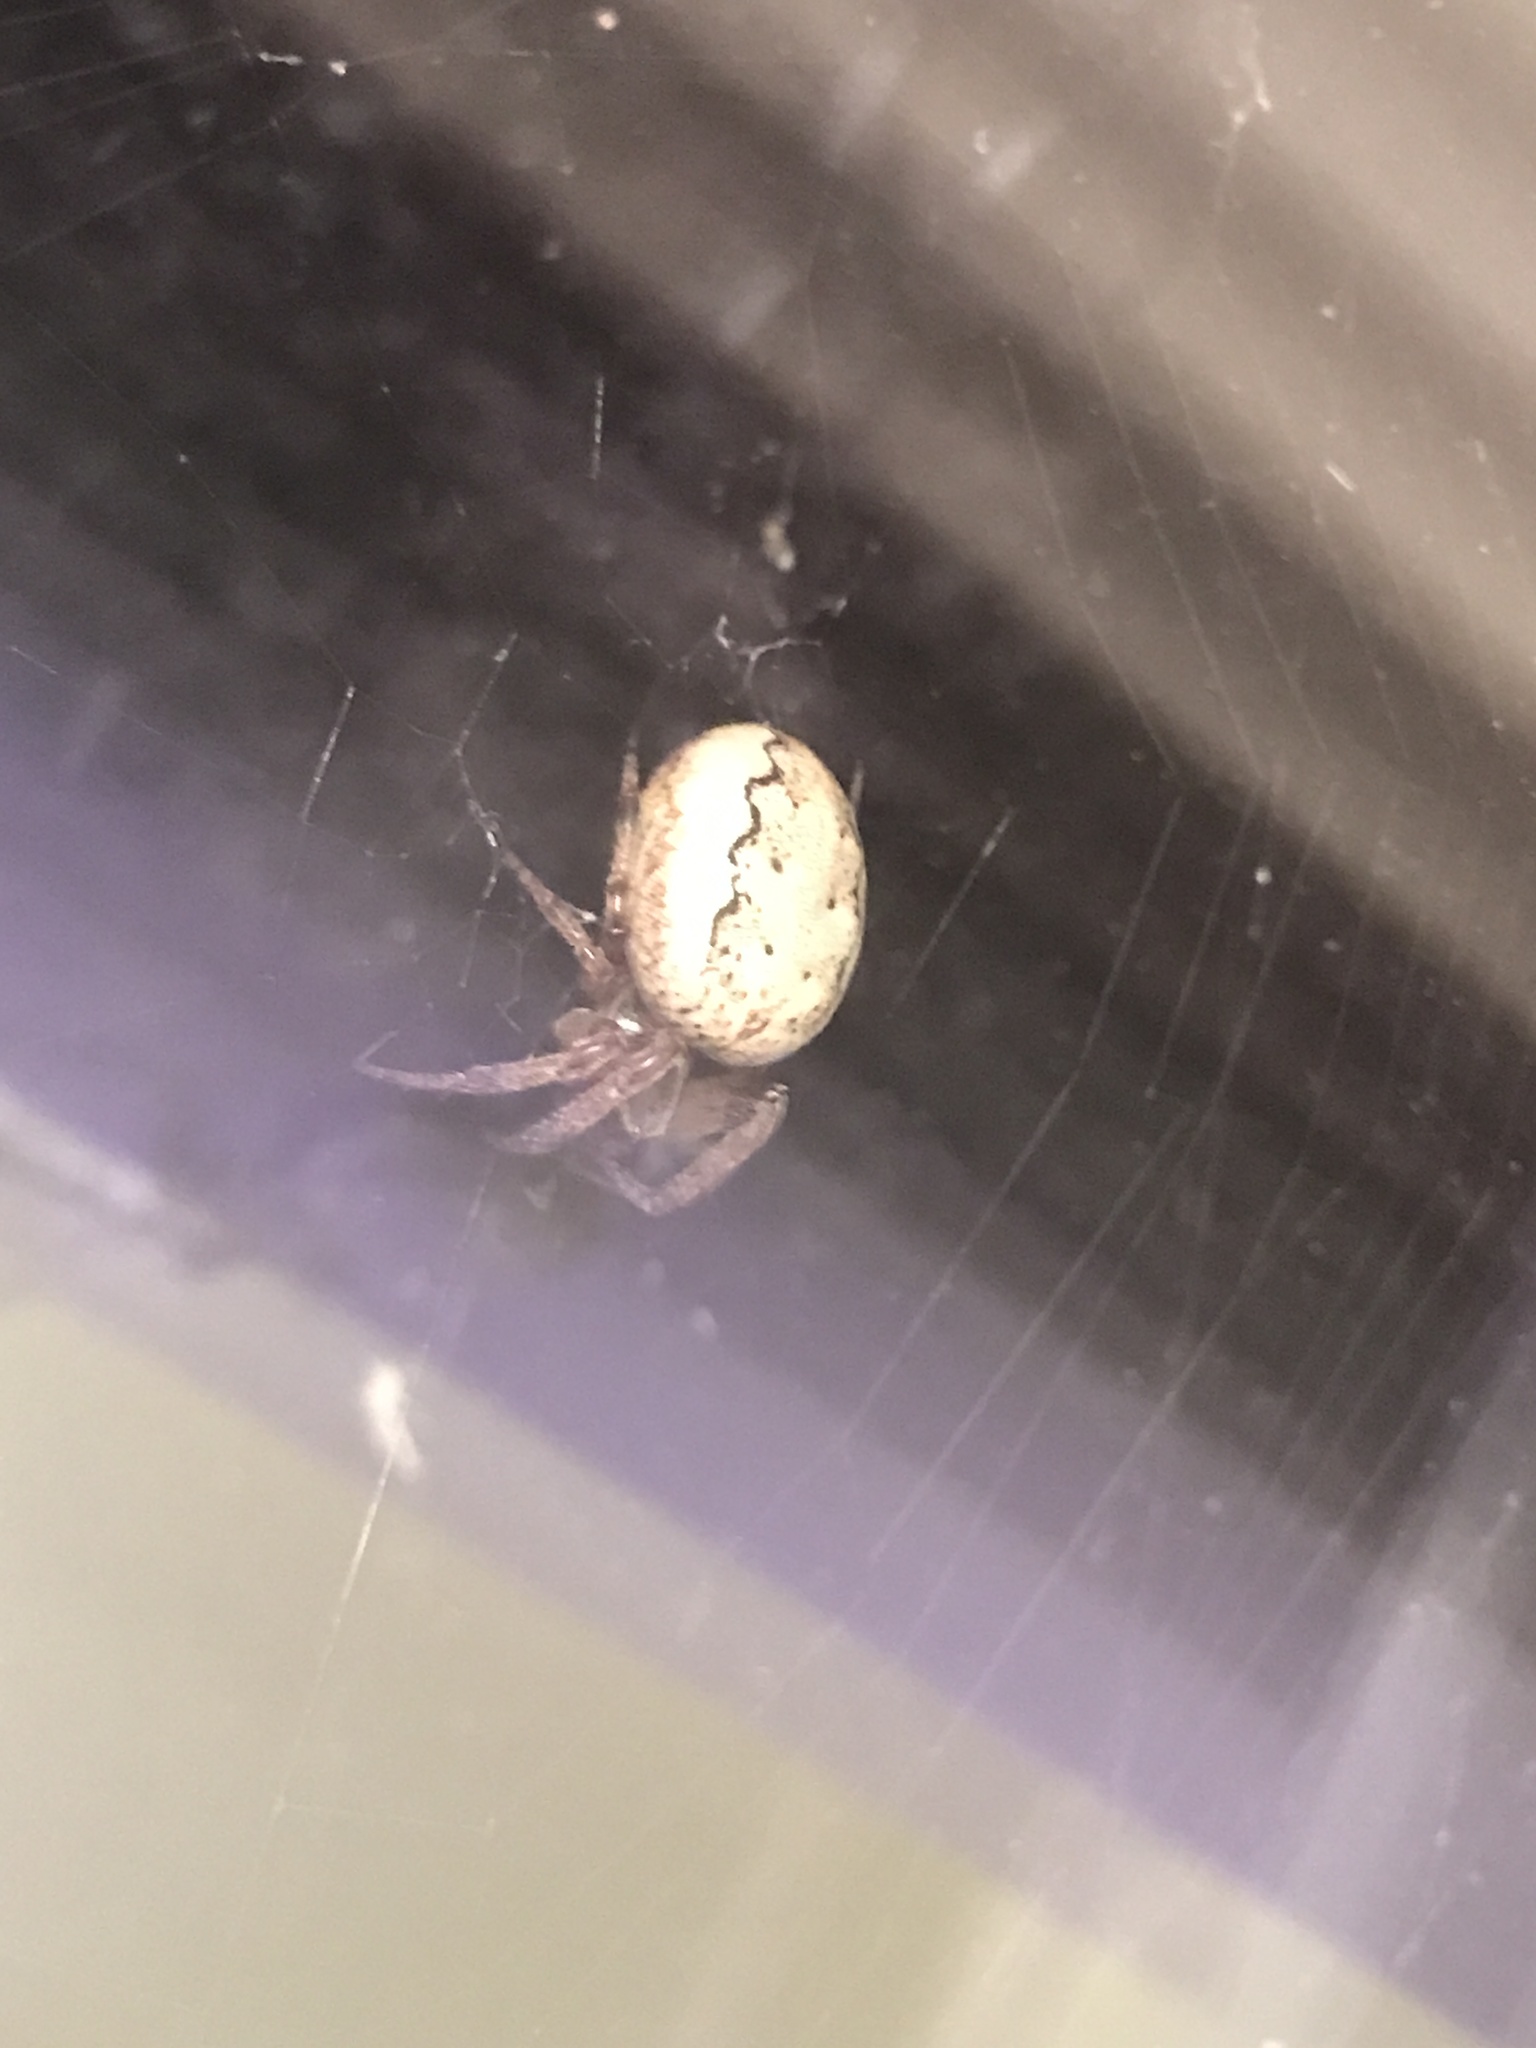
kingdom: Animalia
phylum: Arthropoda
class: Arachnida
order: Araneae
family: Araneidae
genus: Larinioides
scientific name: Larinioides cornutus
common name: Furrow orbweaver
